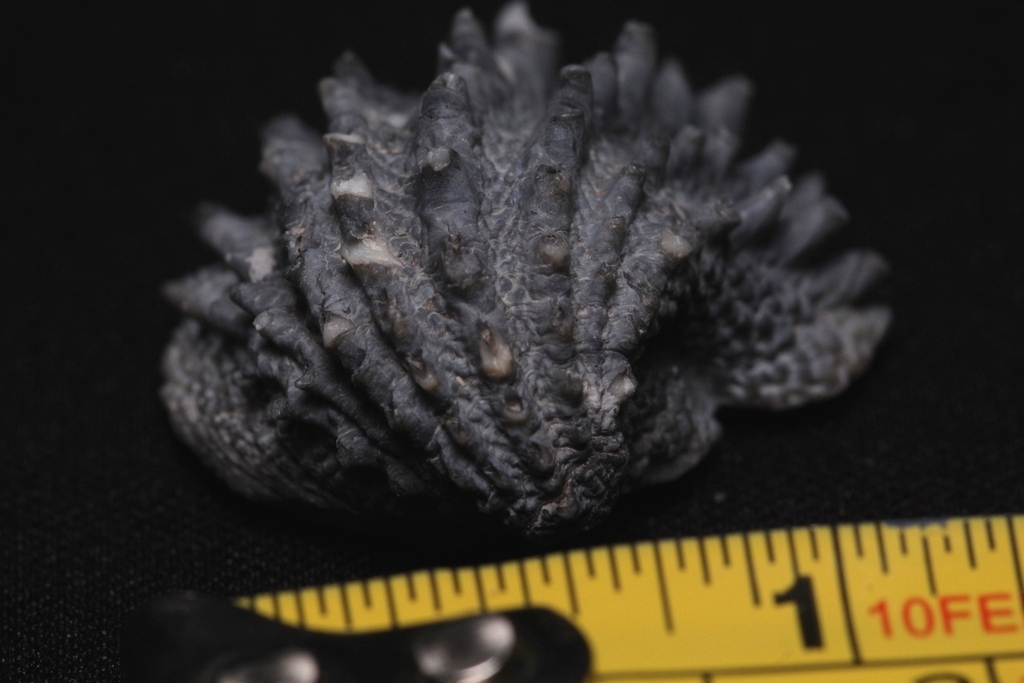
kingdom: Animalia
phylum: Mollusca
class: Bivalvia
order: Venerida
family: Chamidae
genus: Arcinella
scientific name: Arcinella cornuta
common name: Florida spiny jewel box
